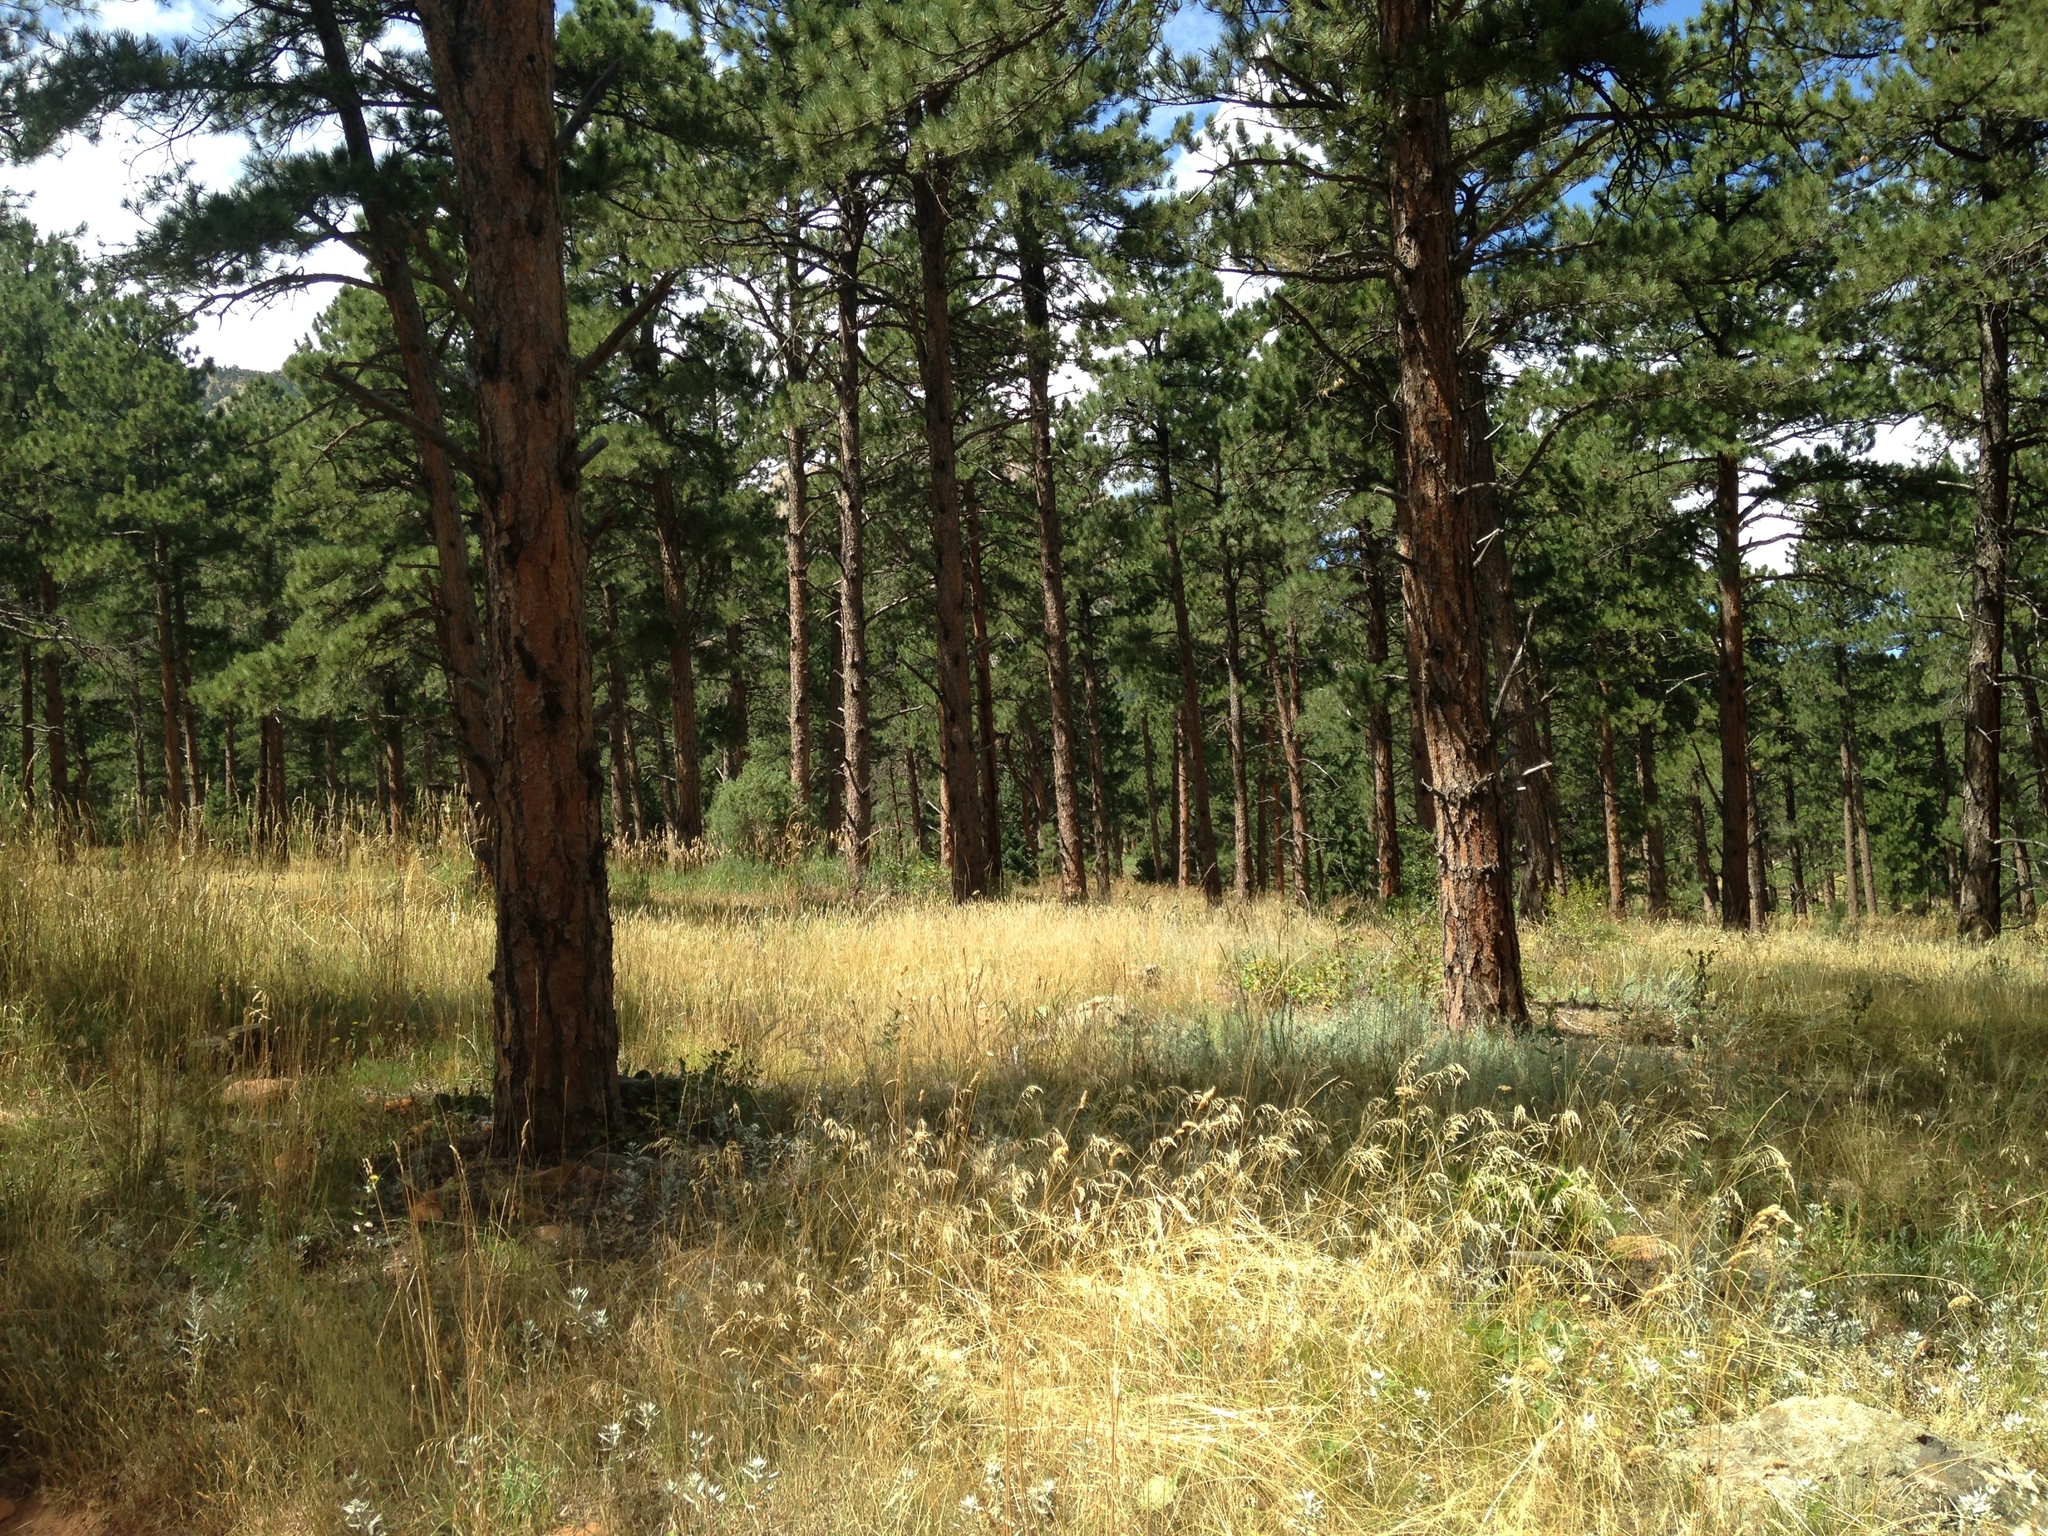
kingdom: Plantae
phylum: Tracheophyta
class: Pinopsida
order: Pinales
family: Pinaceae
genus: Pinus
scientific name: Pinus ponderosa
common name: Western yellow-pine
